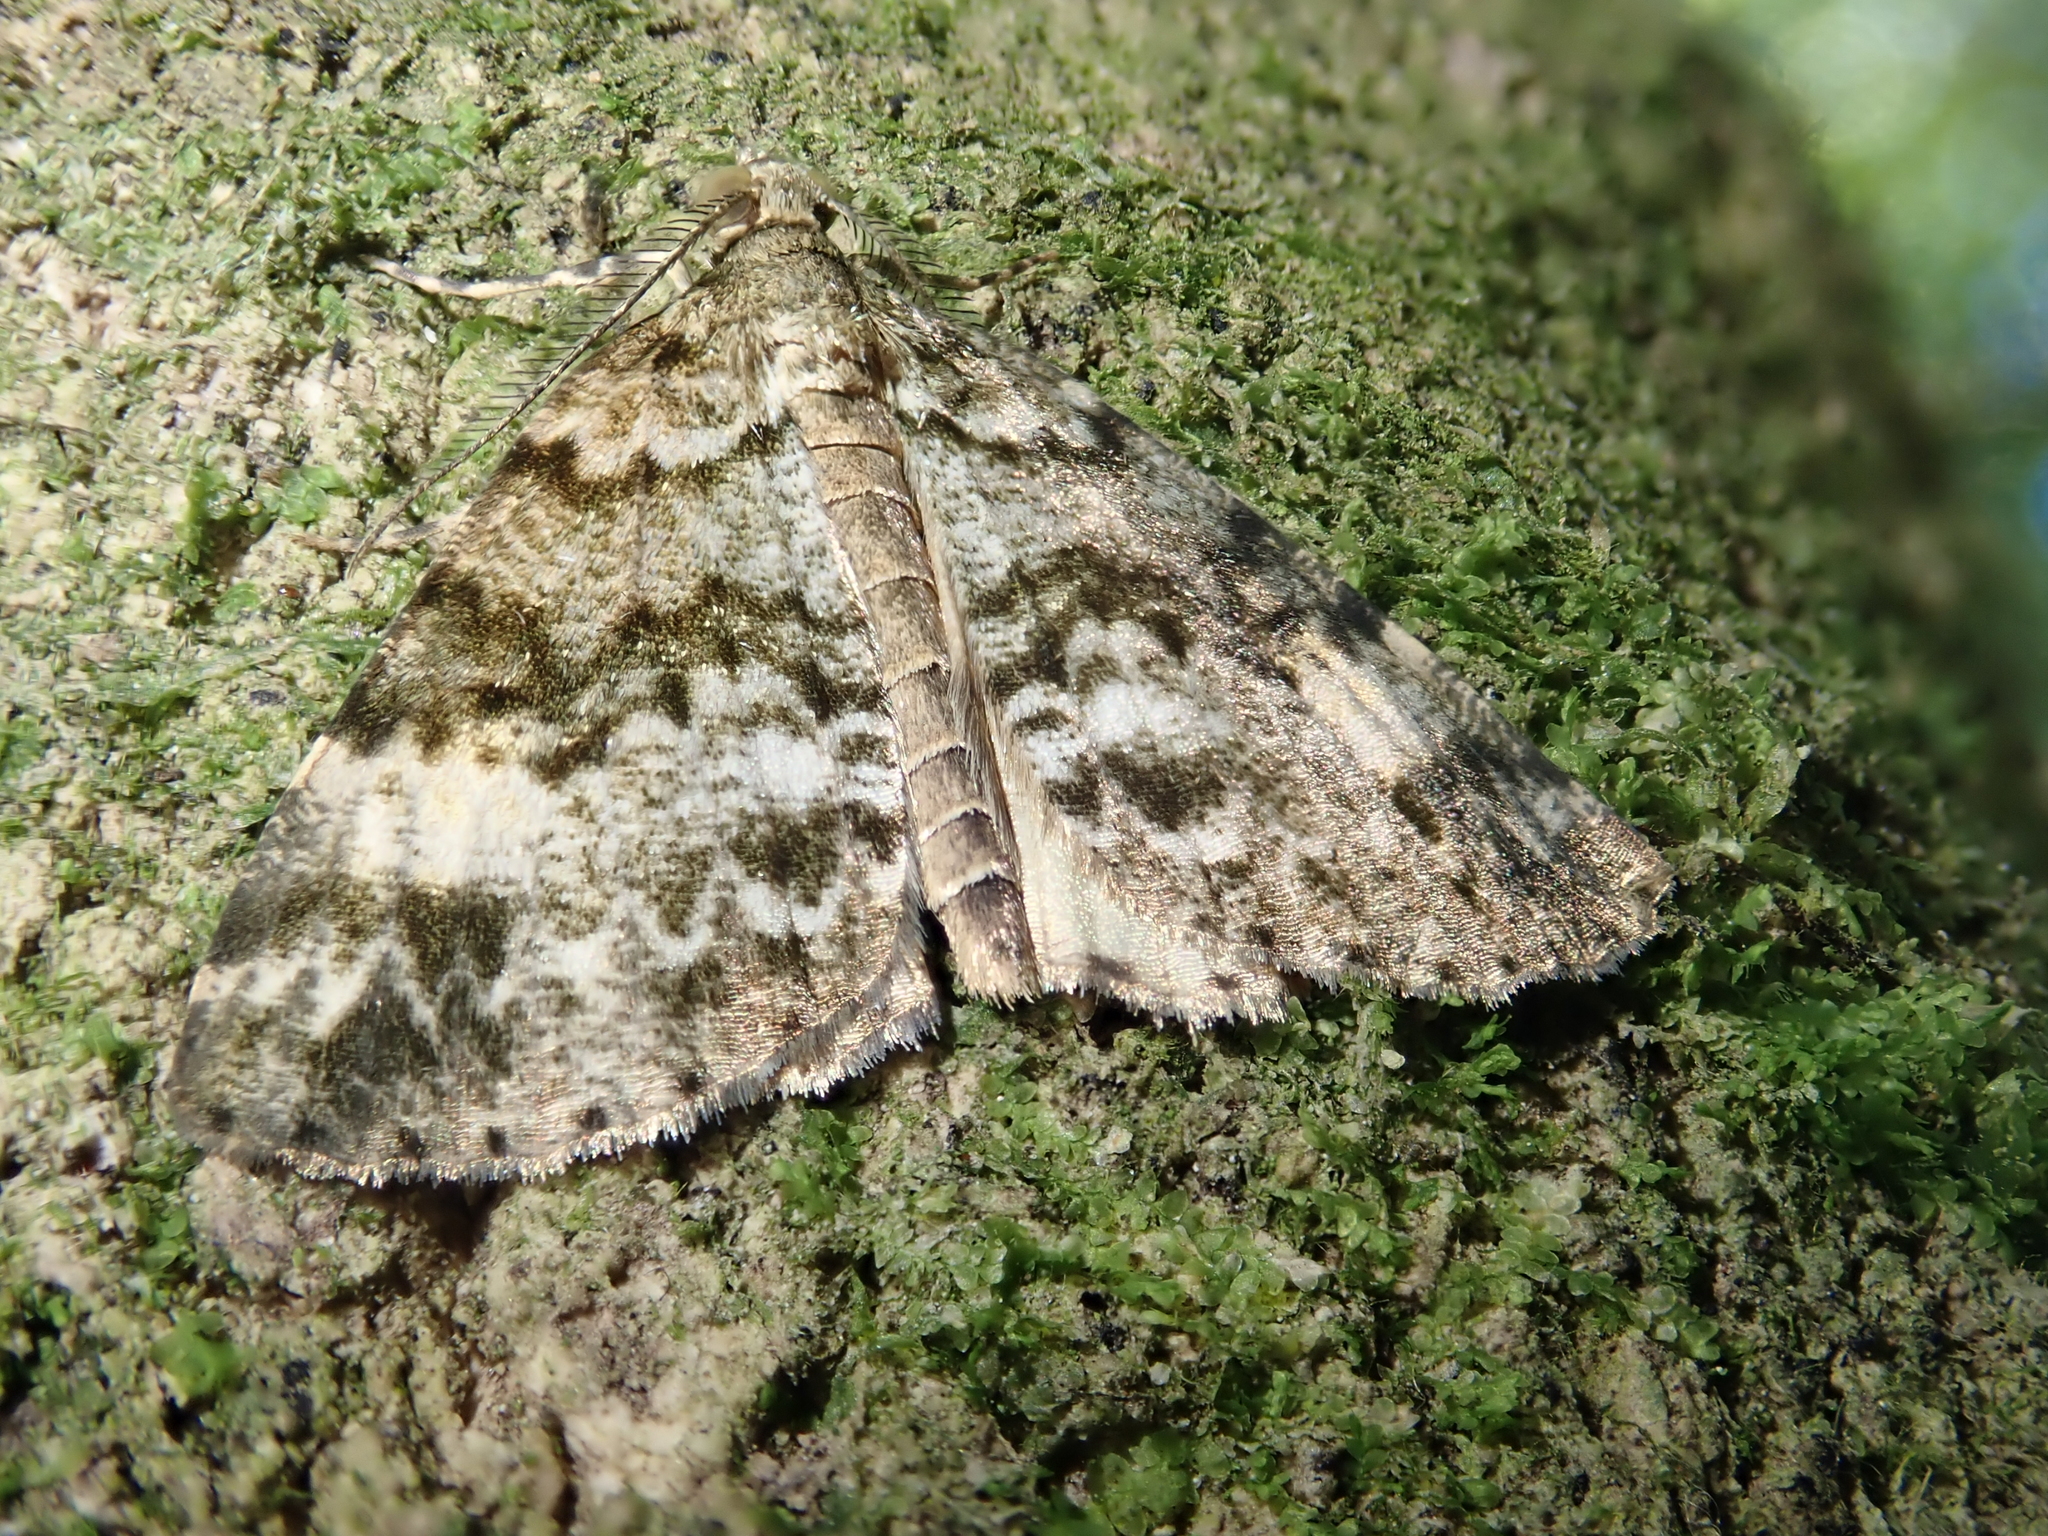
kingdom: Animalia
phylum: Arthropoda
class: Insecta
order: Lepidoptera
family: Geometridae
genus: Pseudocoremia
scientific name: Pseudocoremia indistincta
